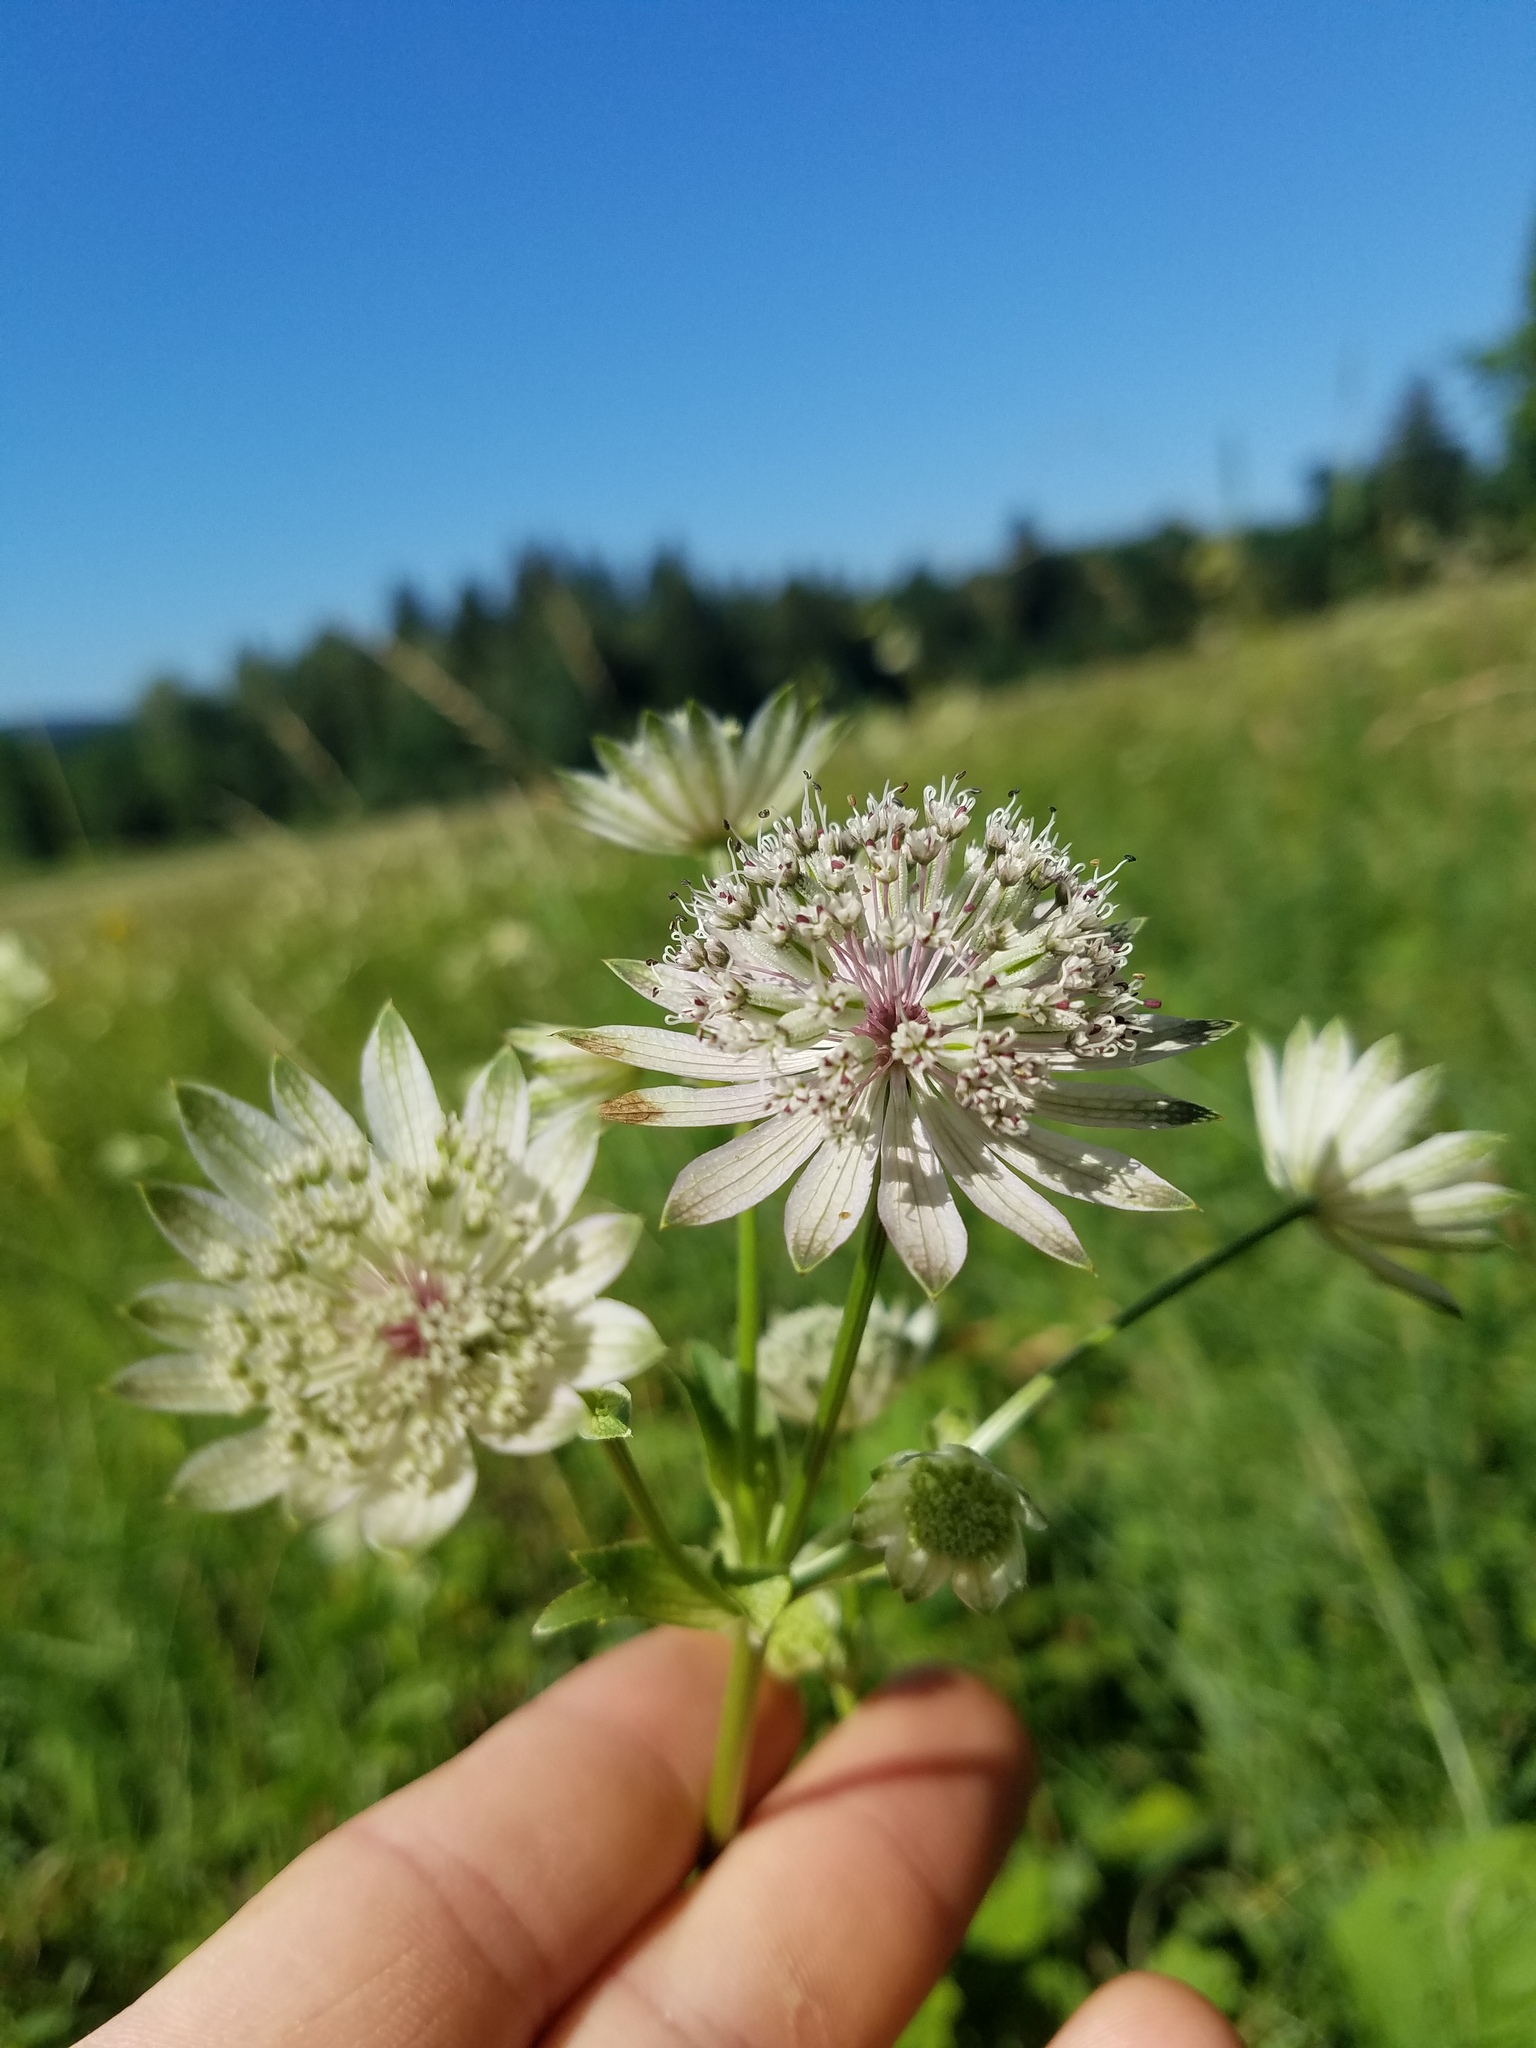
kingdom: Plantae
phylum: Tracheophyta
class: Magnoliopsida
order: Apiales
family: Apiaceae
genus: Astrantia
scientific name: Astrantia major
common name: Greater masterwort
